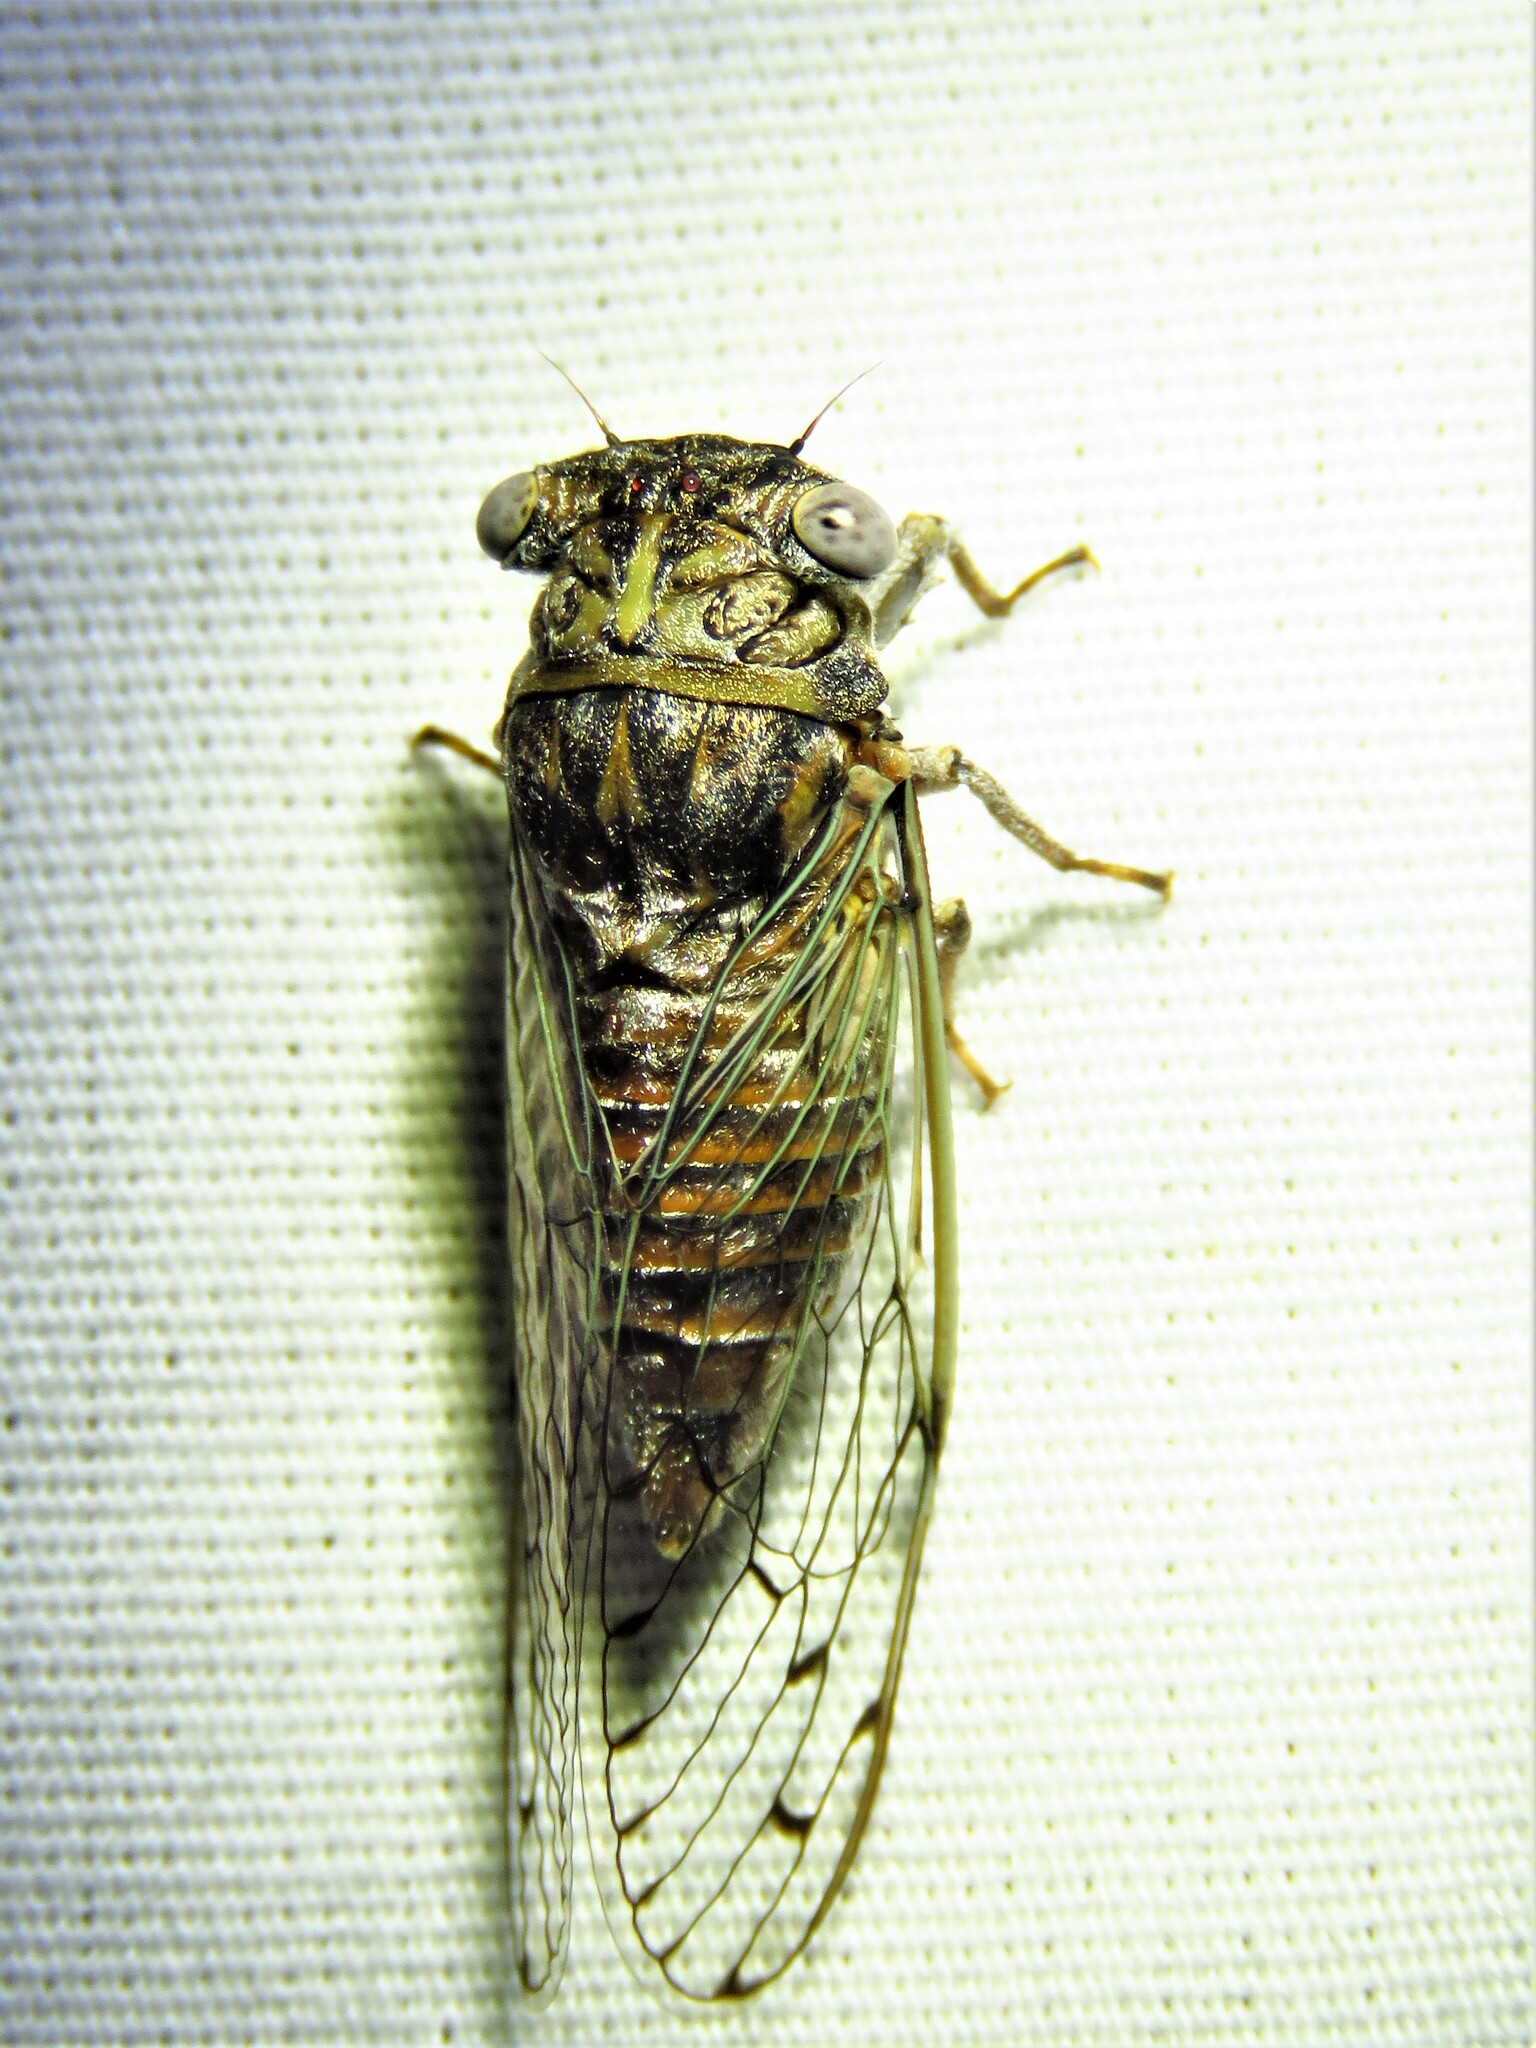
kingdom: Animalia
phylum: Arthropoda
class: Insecta
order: Hemiptera
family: Cicadidae
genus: Pacarina
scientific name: Pacarina puella
